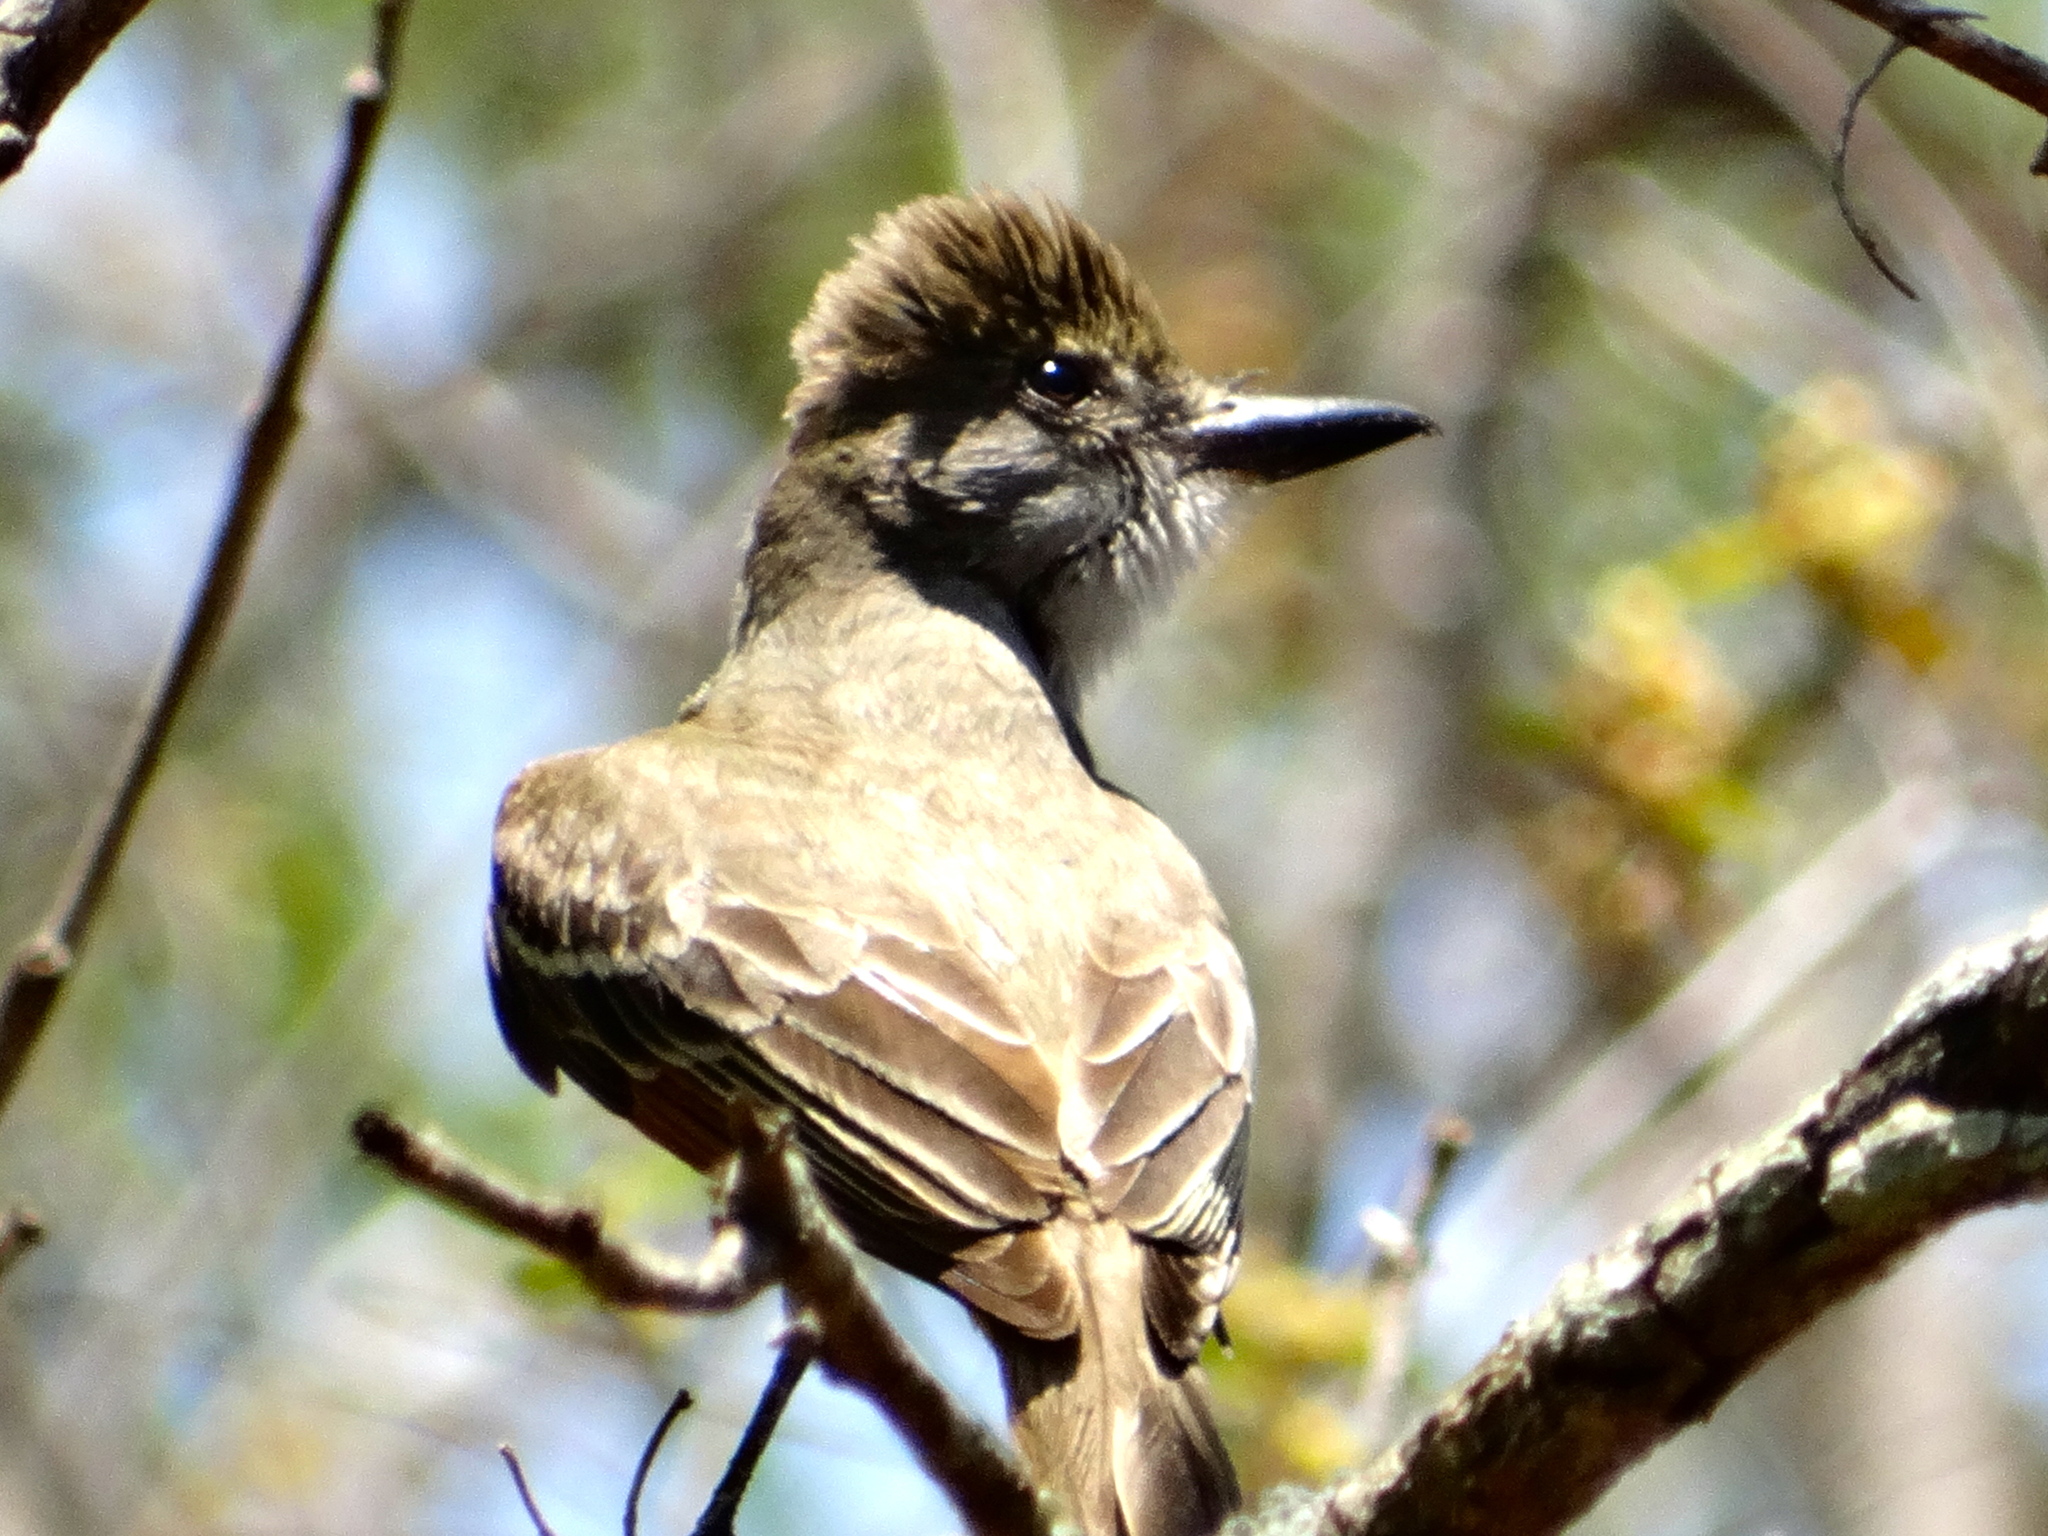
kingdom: Animalia
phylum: Chordata
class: Aves
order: Passeriformes
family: Tyrannidae
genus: Myiarchus
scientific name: Myiarchus
